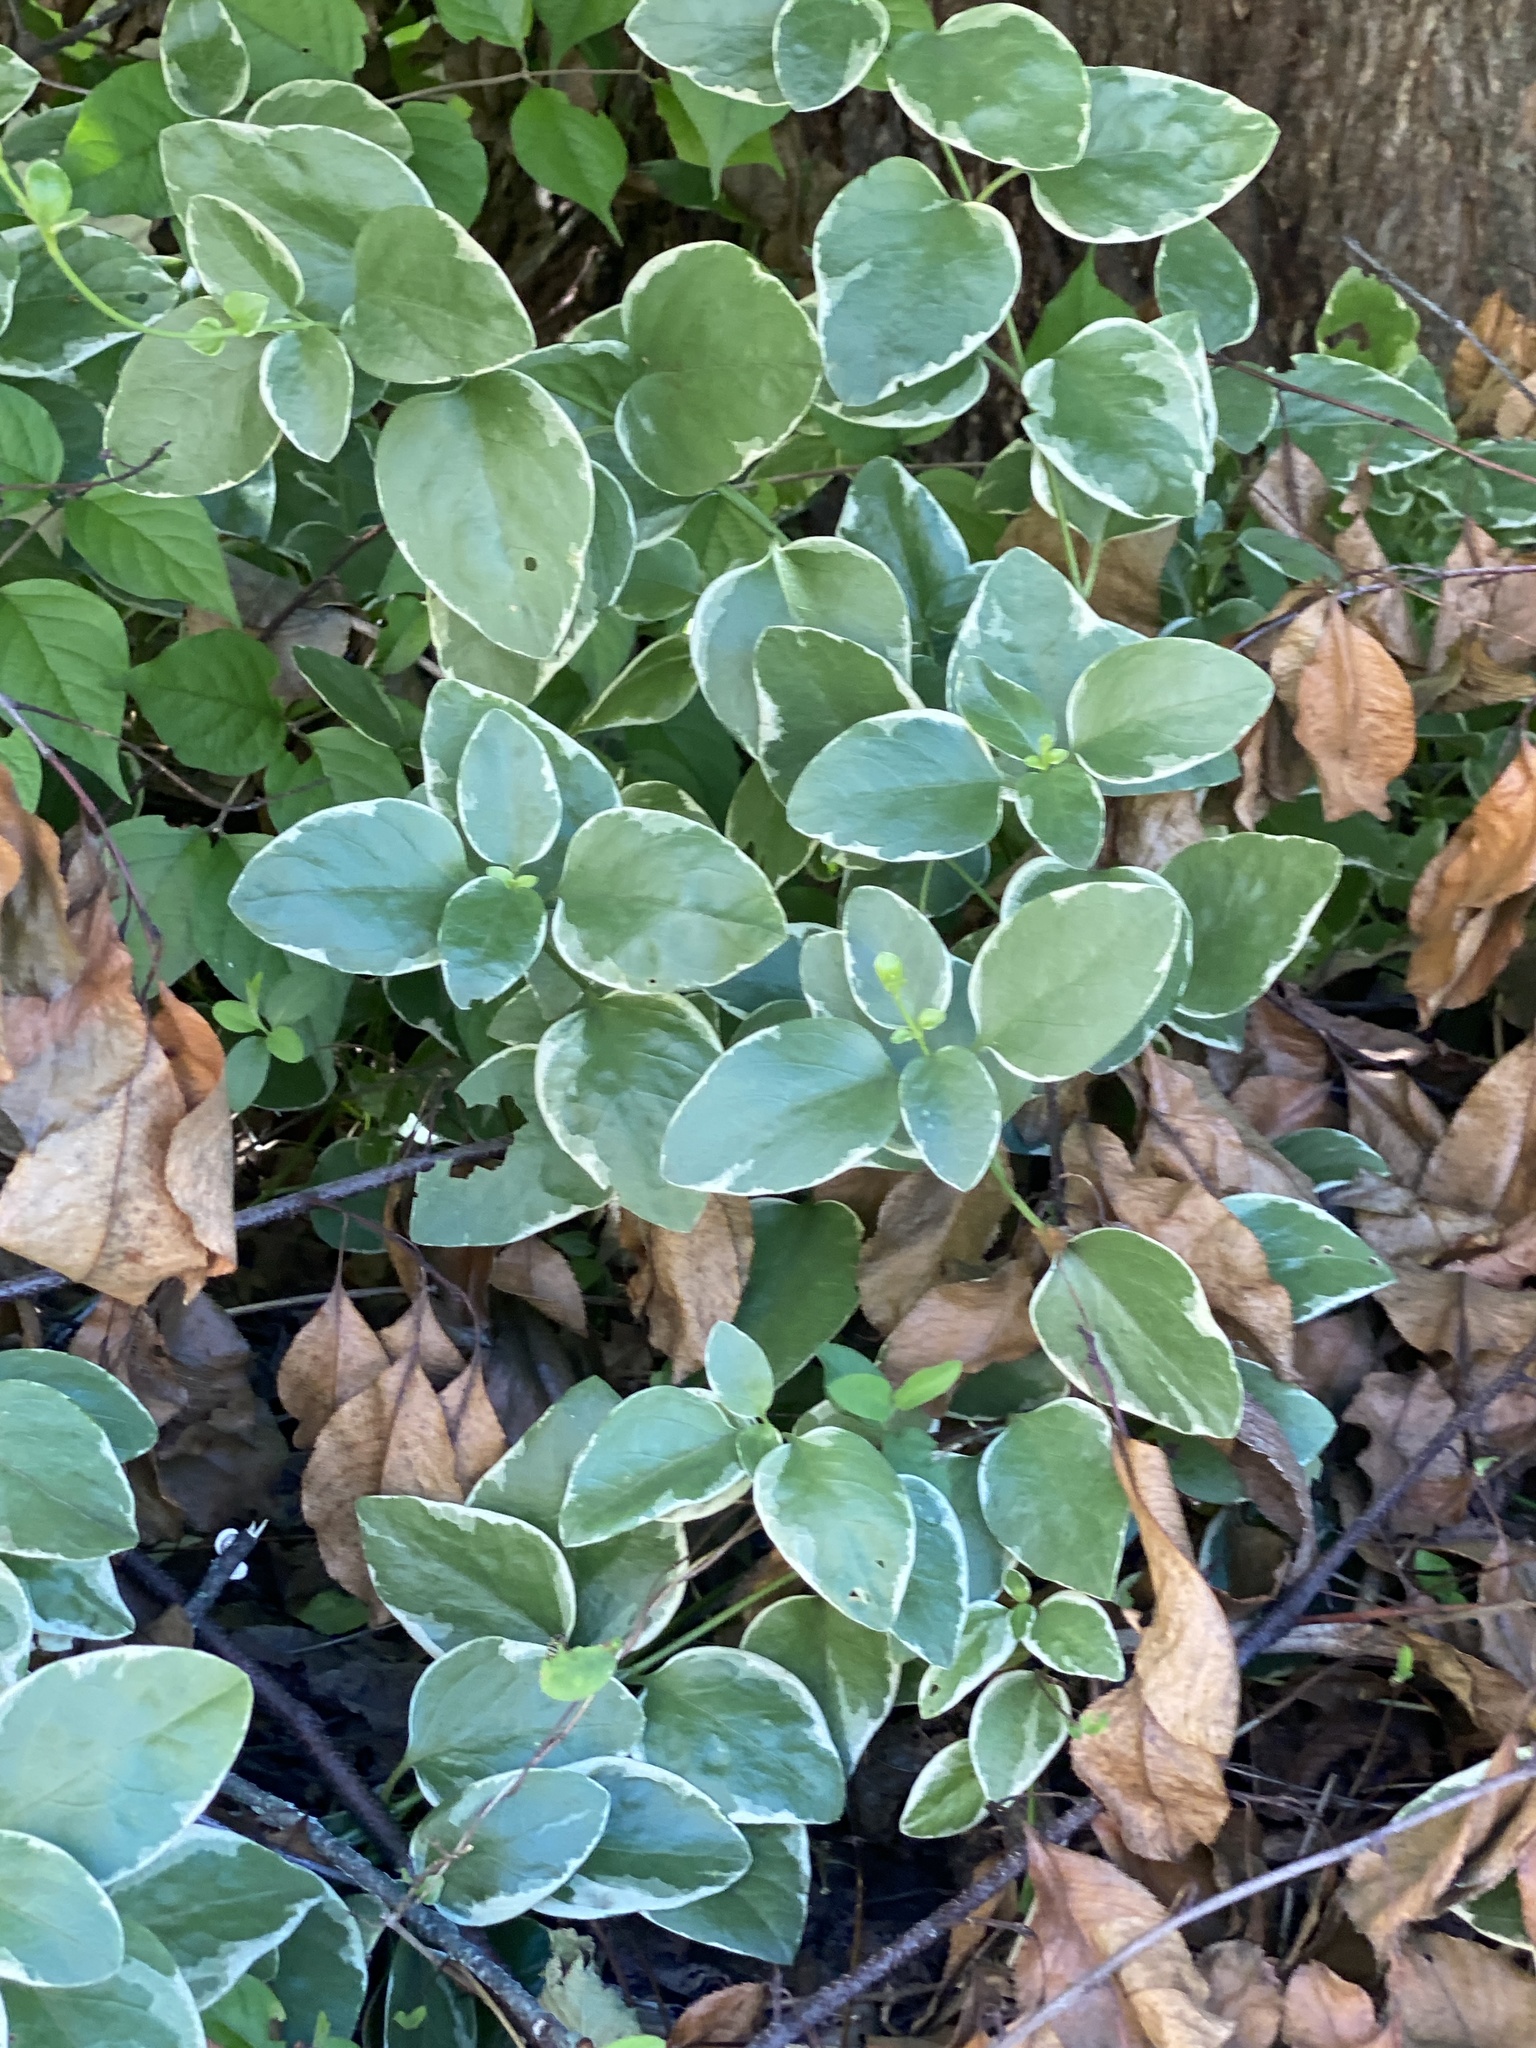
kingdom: Plantae
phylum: Tracheophyta
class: Magnoliopsida
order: Gentianales
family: Apocynaceae
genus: Vinca
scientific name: Vinca major
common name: Greater periwinkle
